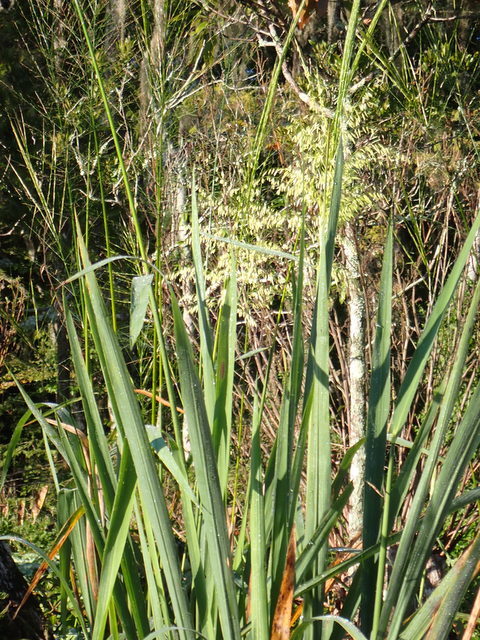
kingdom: Plantae
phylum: Tracheophyta
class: Liliopsida
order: Poales
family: Poaceae
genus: Zizania
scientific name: Zizania aquatica
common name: Annual wildrice
